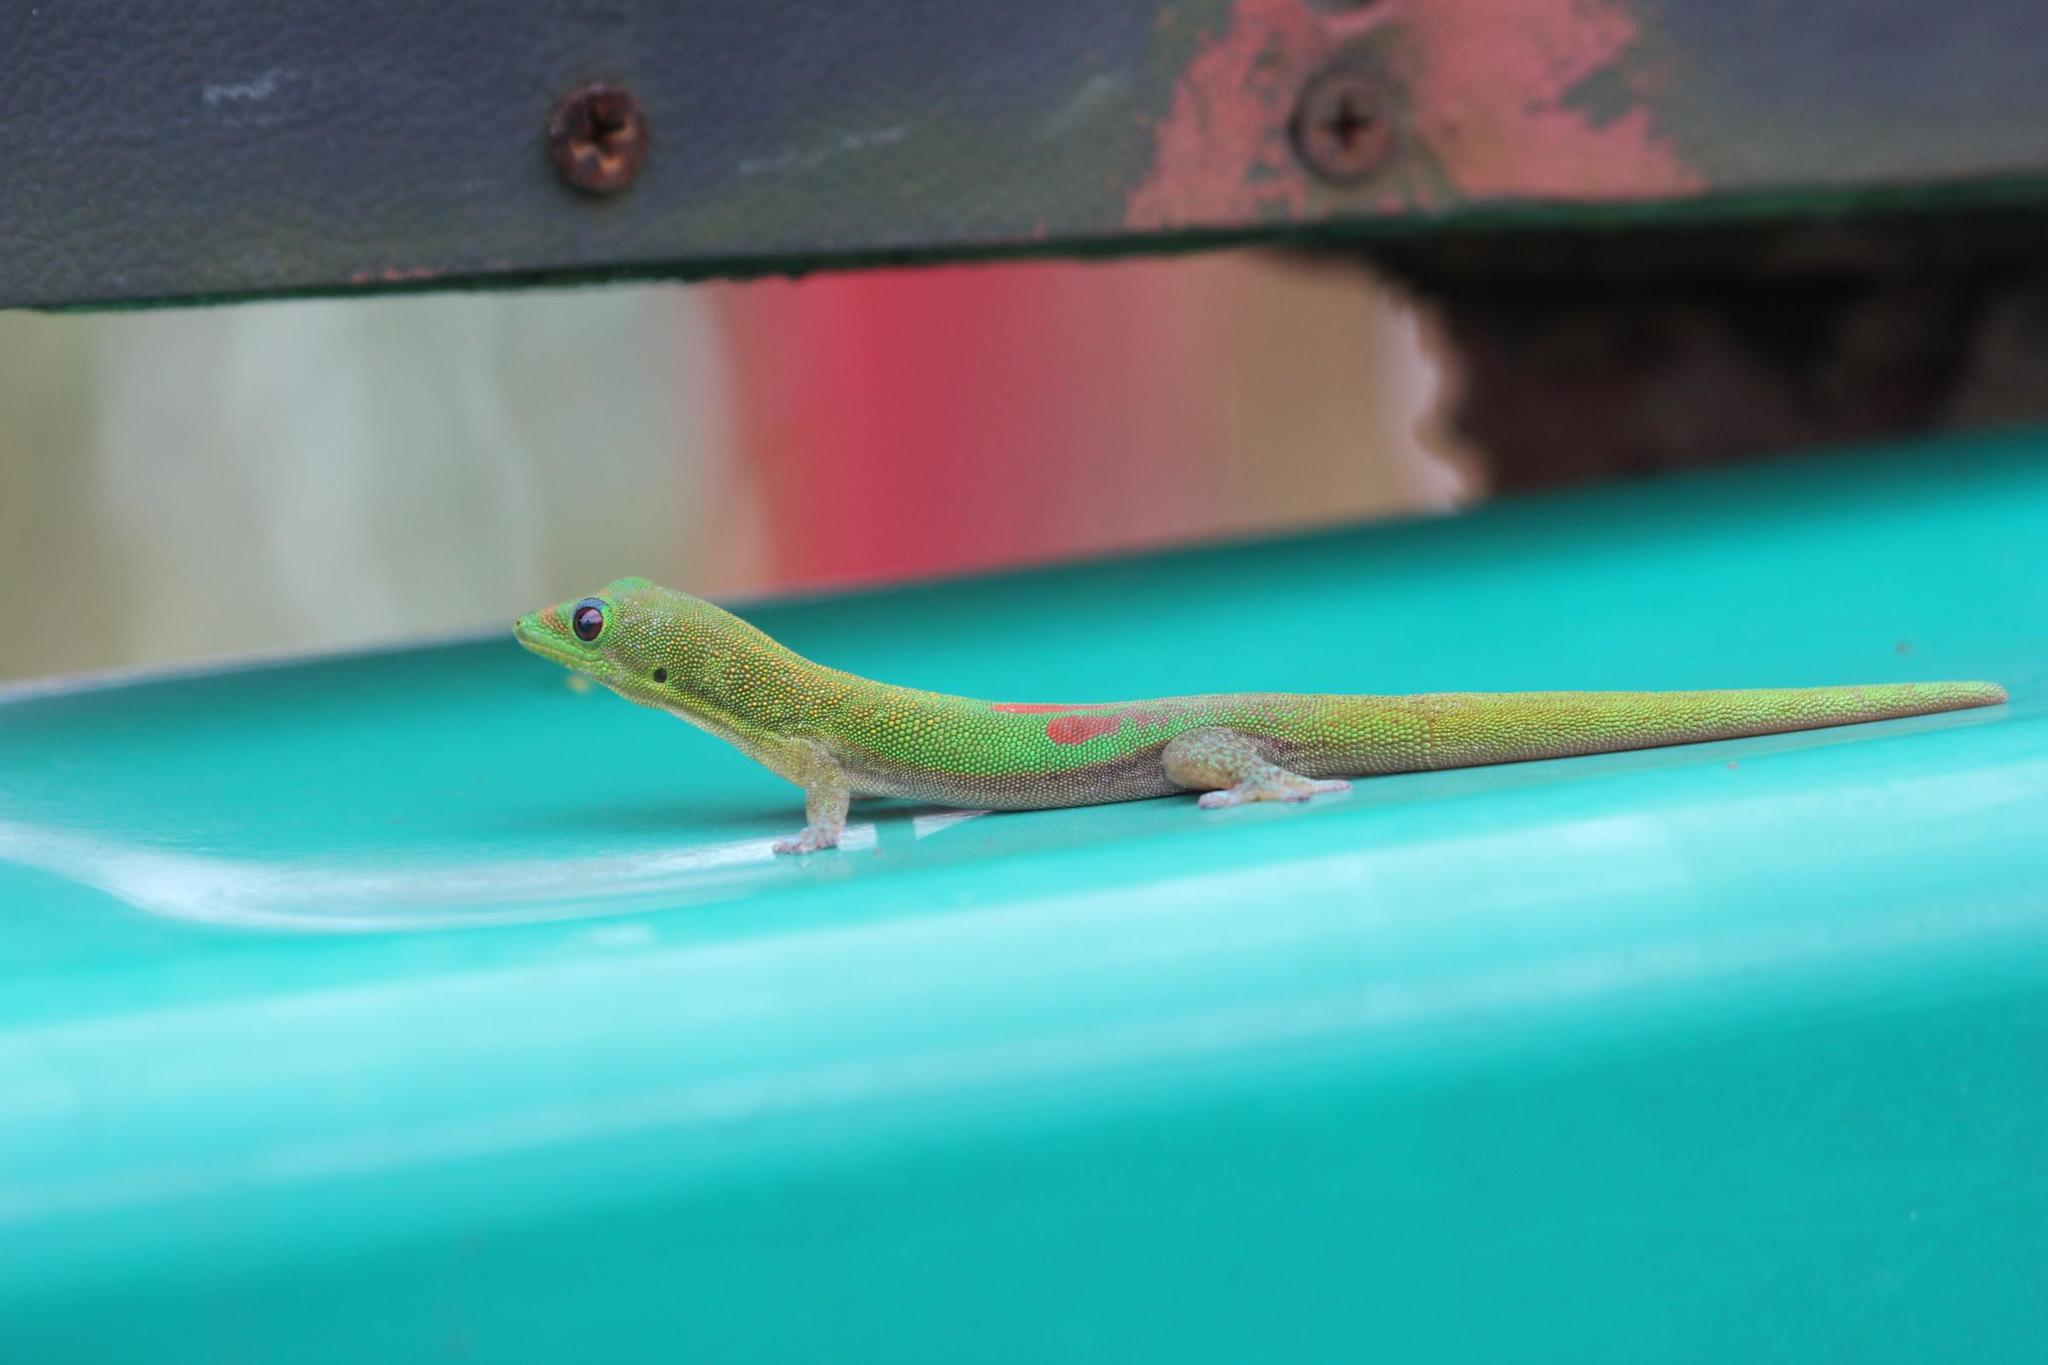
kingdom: Animalia
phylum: Chordata
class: Squamata
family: Gekkonidae
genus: Phelsuma
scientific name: Phelsuma laticauda
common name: Gold dust day gecko
